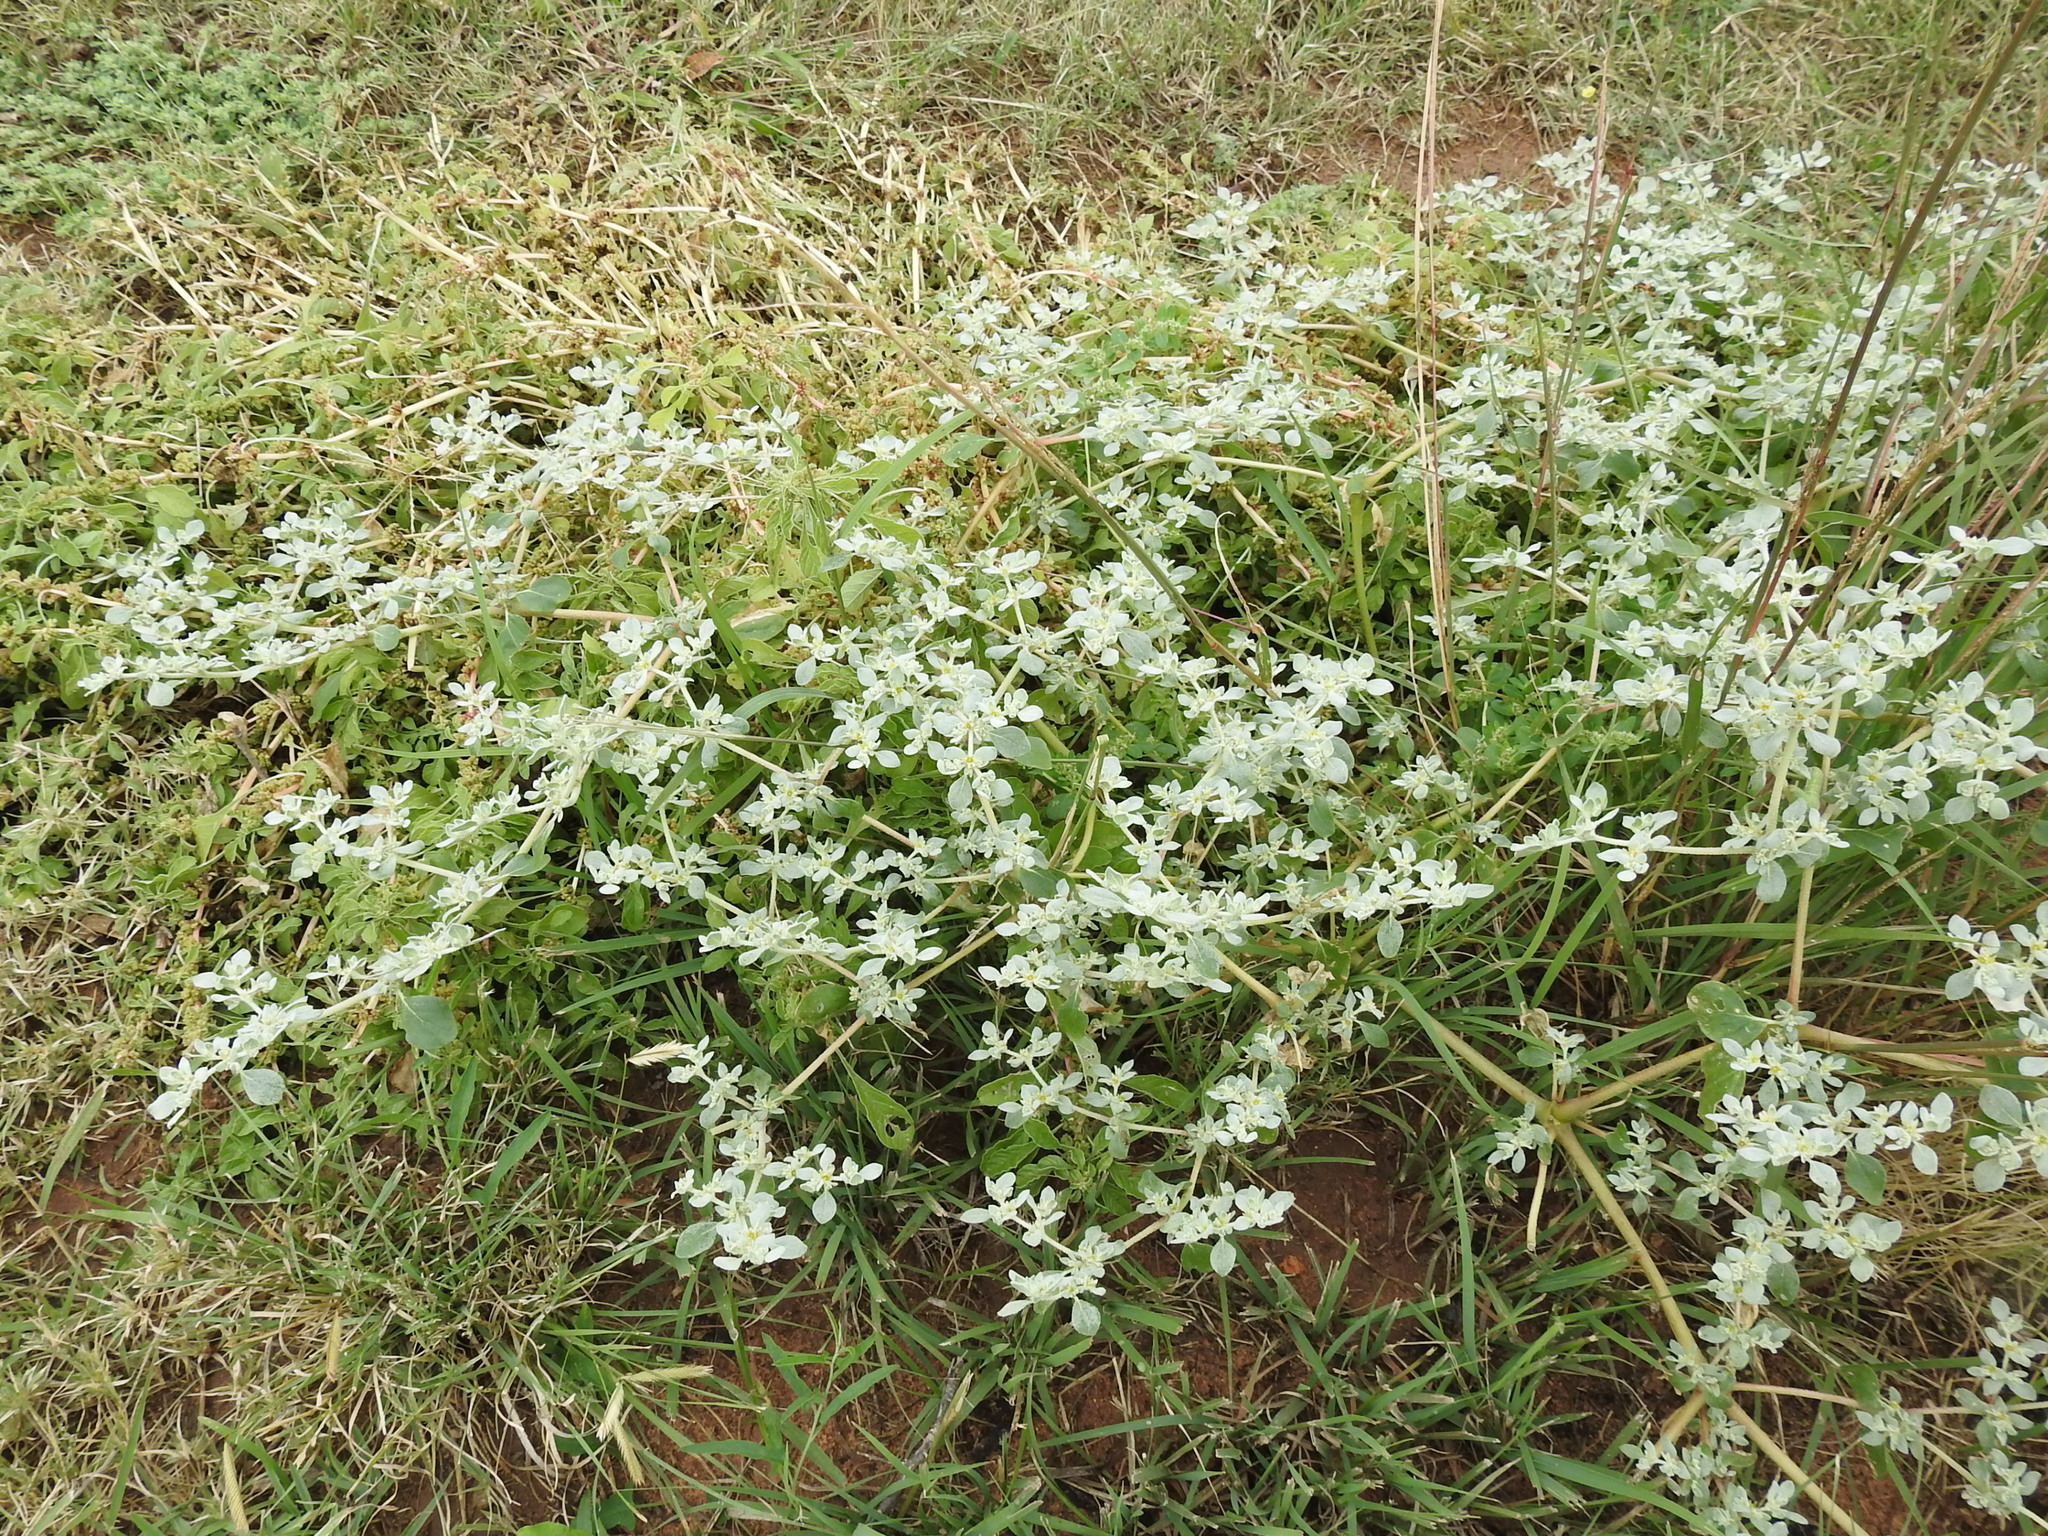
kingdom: Plantae
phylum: Tracheophyta
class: Magnoliopsida
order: Caryophyllales
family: Amaranthaceae
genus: Tidestromia
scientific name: Tidestromia lanuginosa
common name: Woolly tidestromia
